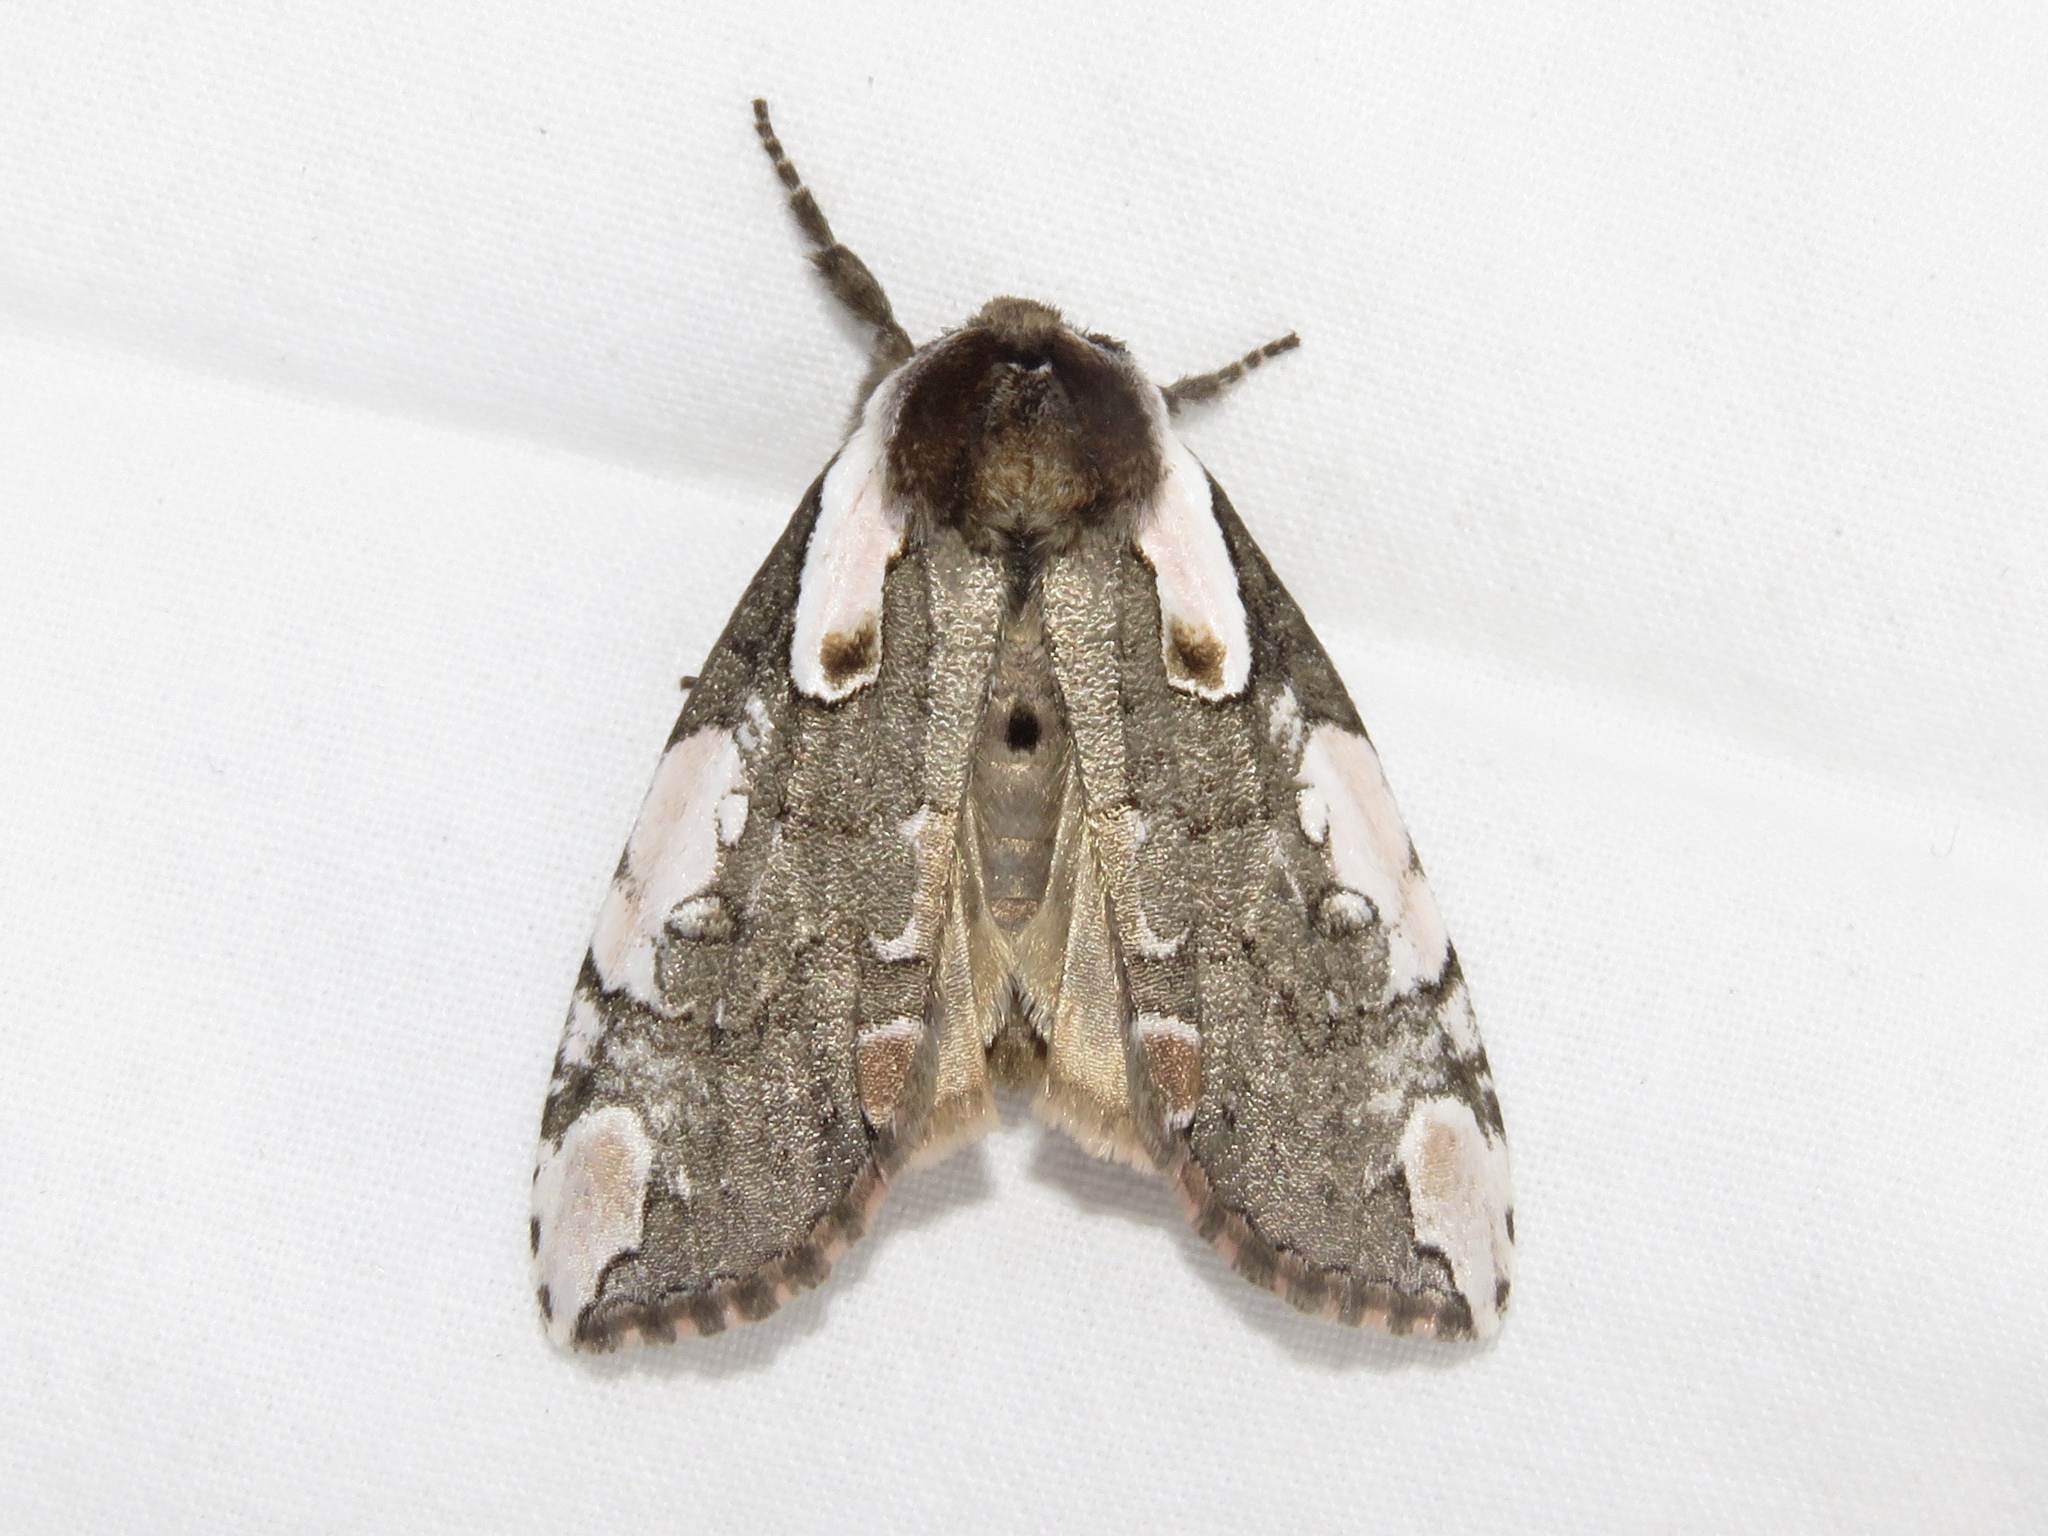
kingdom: Animalia
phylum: Arthropoda
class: Insecta
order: Lepidoptera
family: Drepanidae
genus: Euthyatira
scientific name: Euthyatira pudens
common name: Dogwood thyatirid moth
